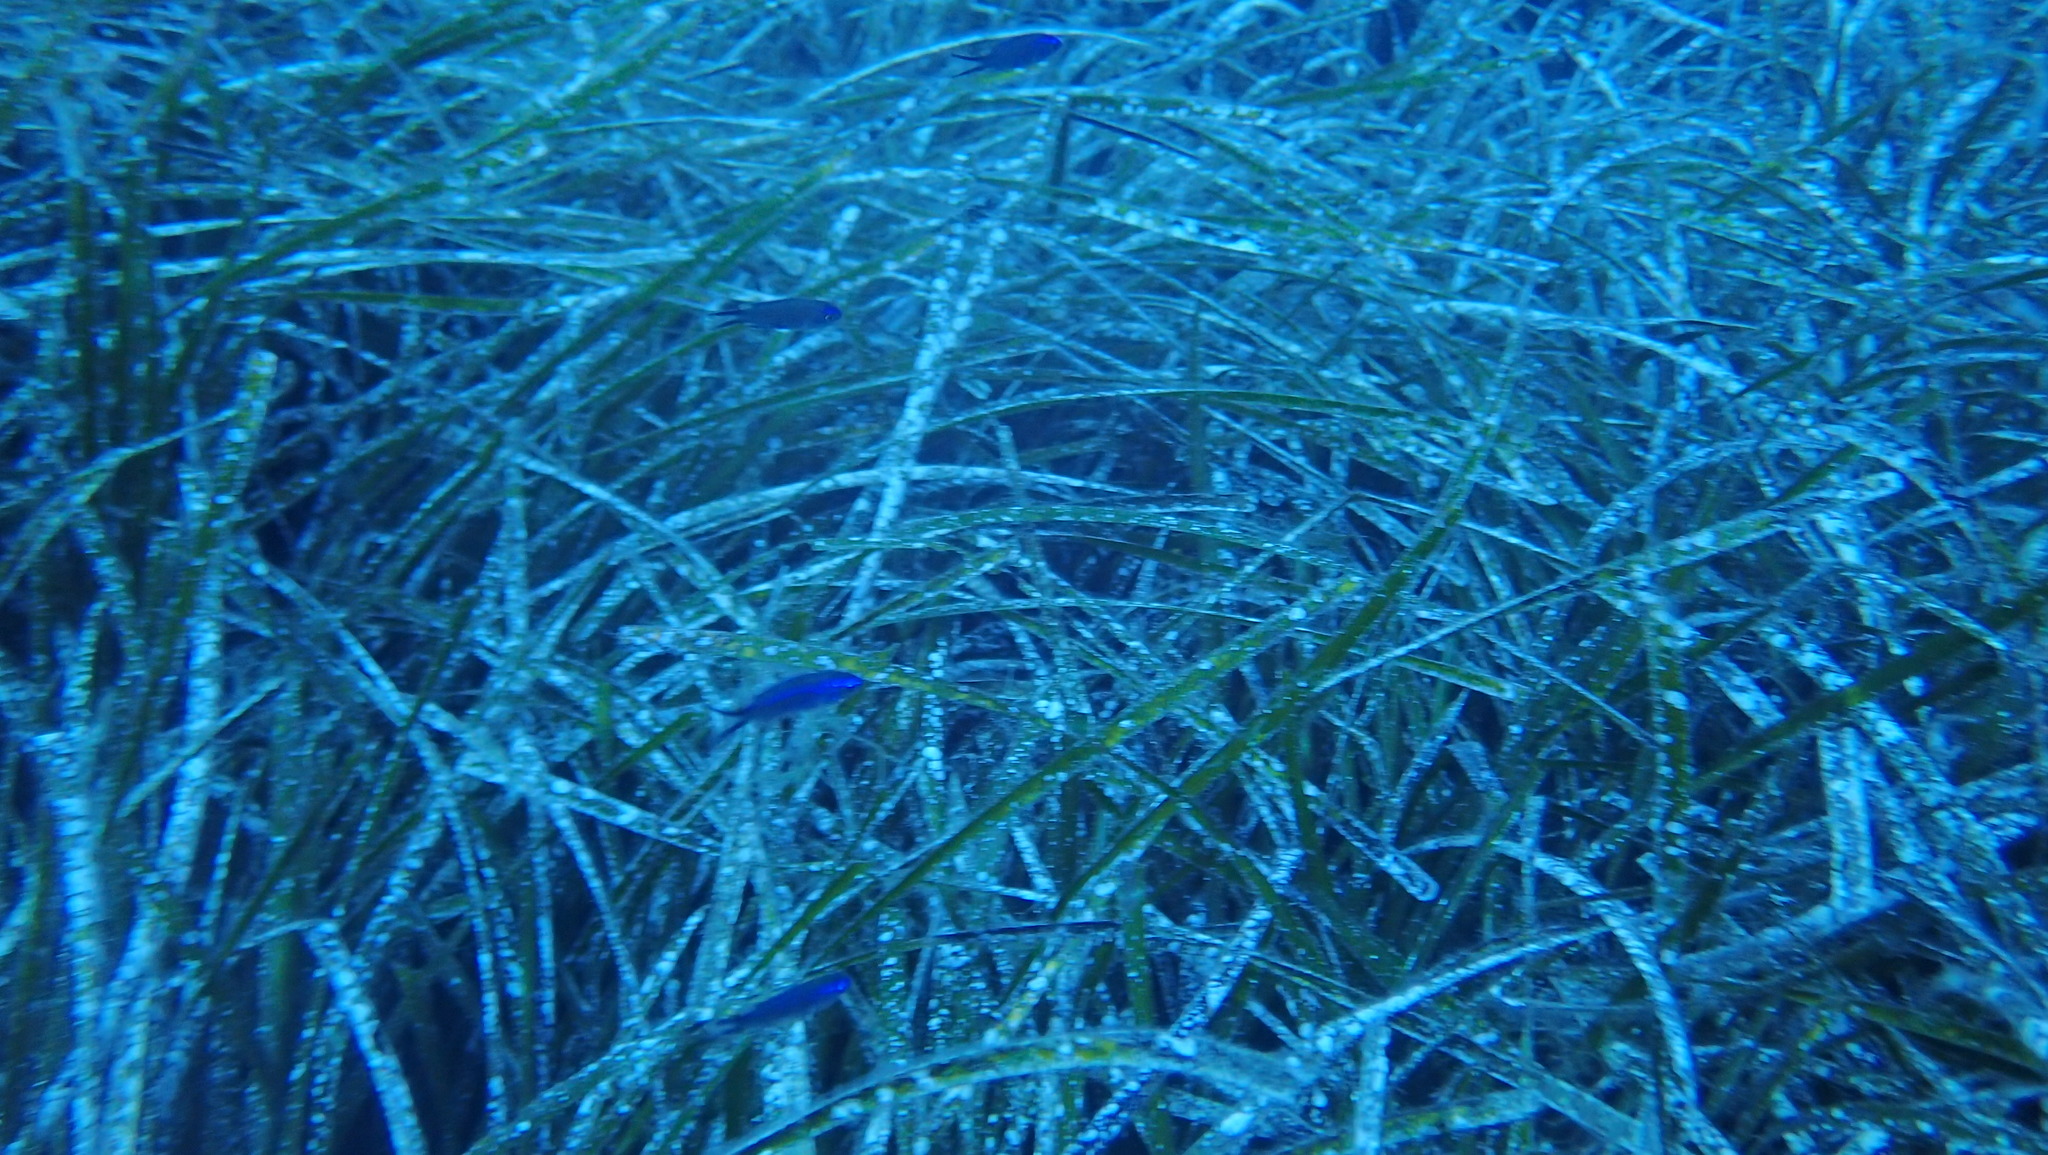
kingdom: Animalia
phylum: Chordata
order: Perciformes
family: Pomacentridae
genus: Chromis
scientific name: Chromis chromis
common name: Damselfish
